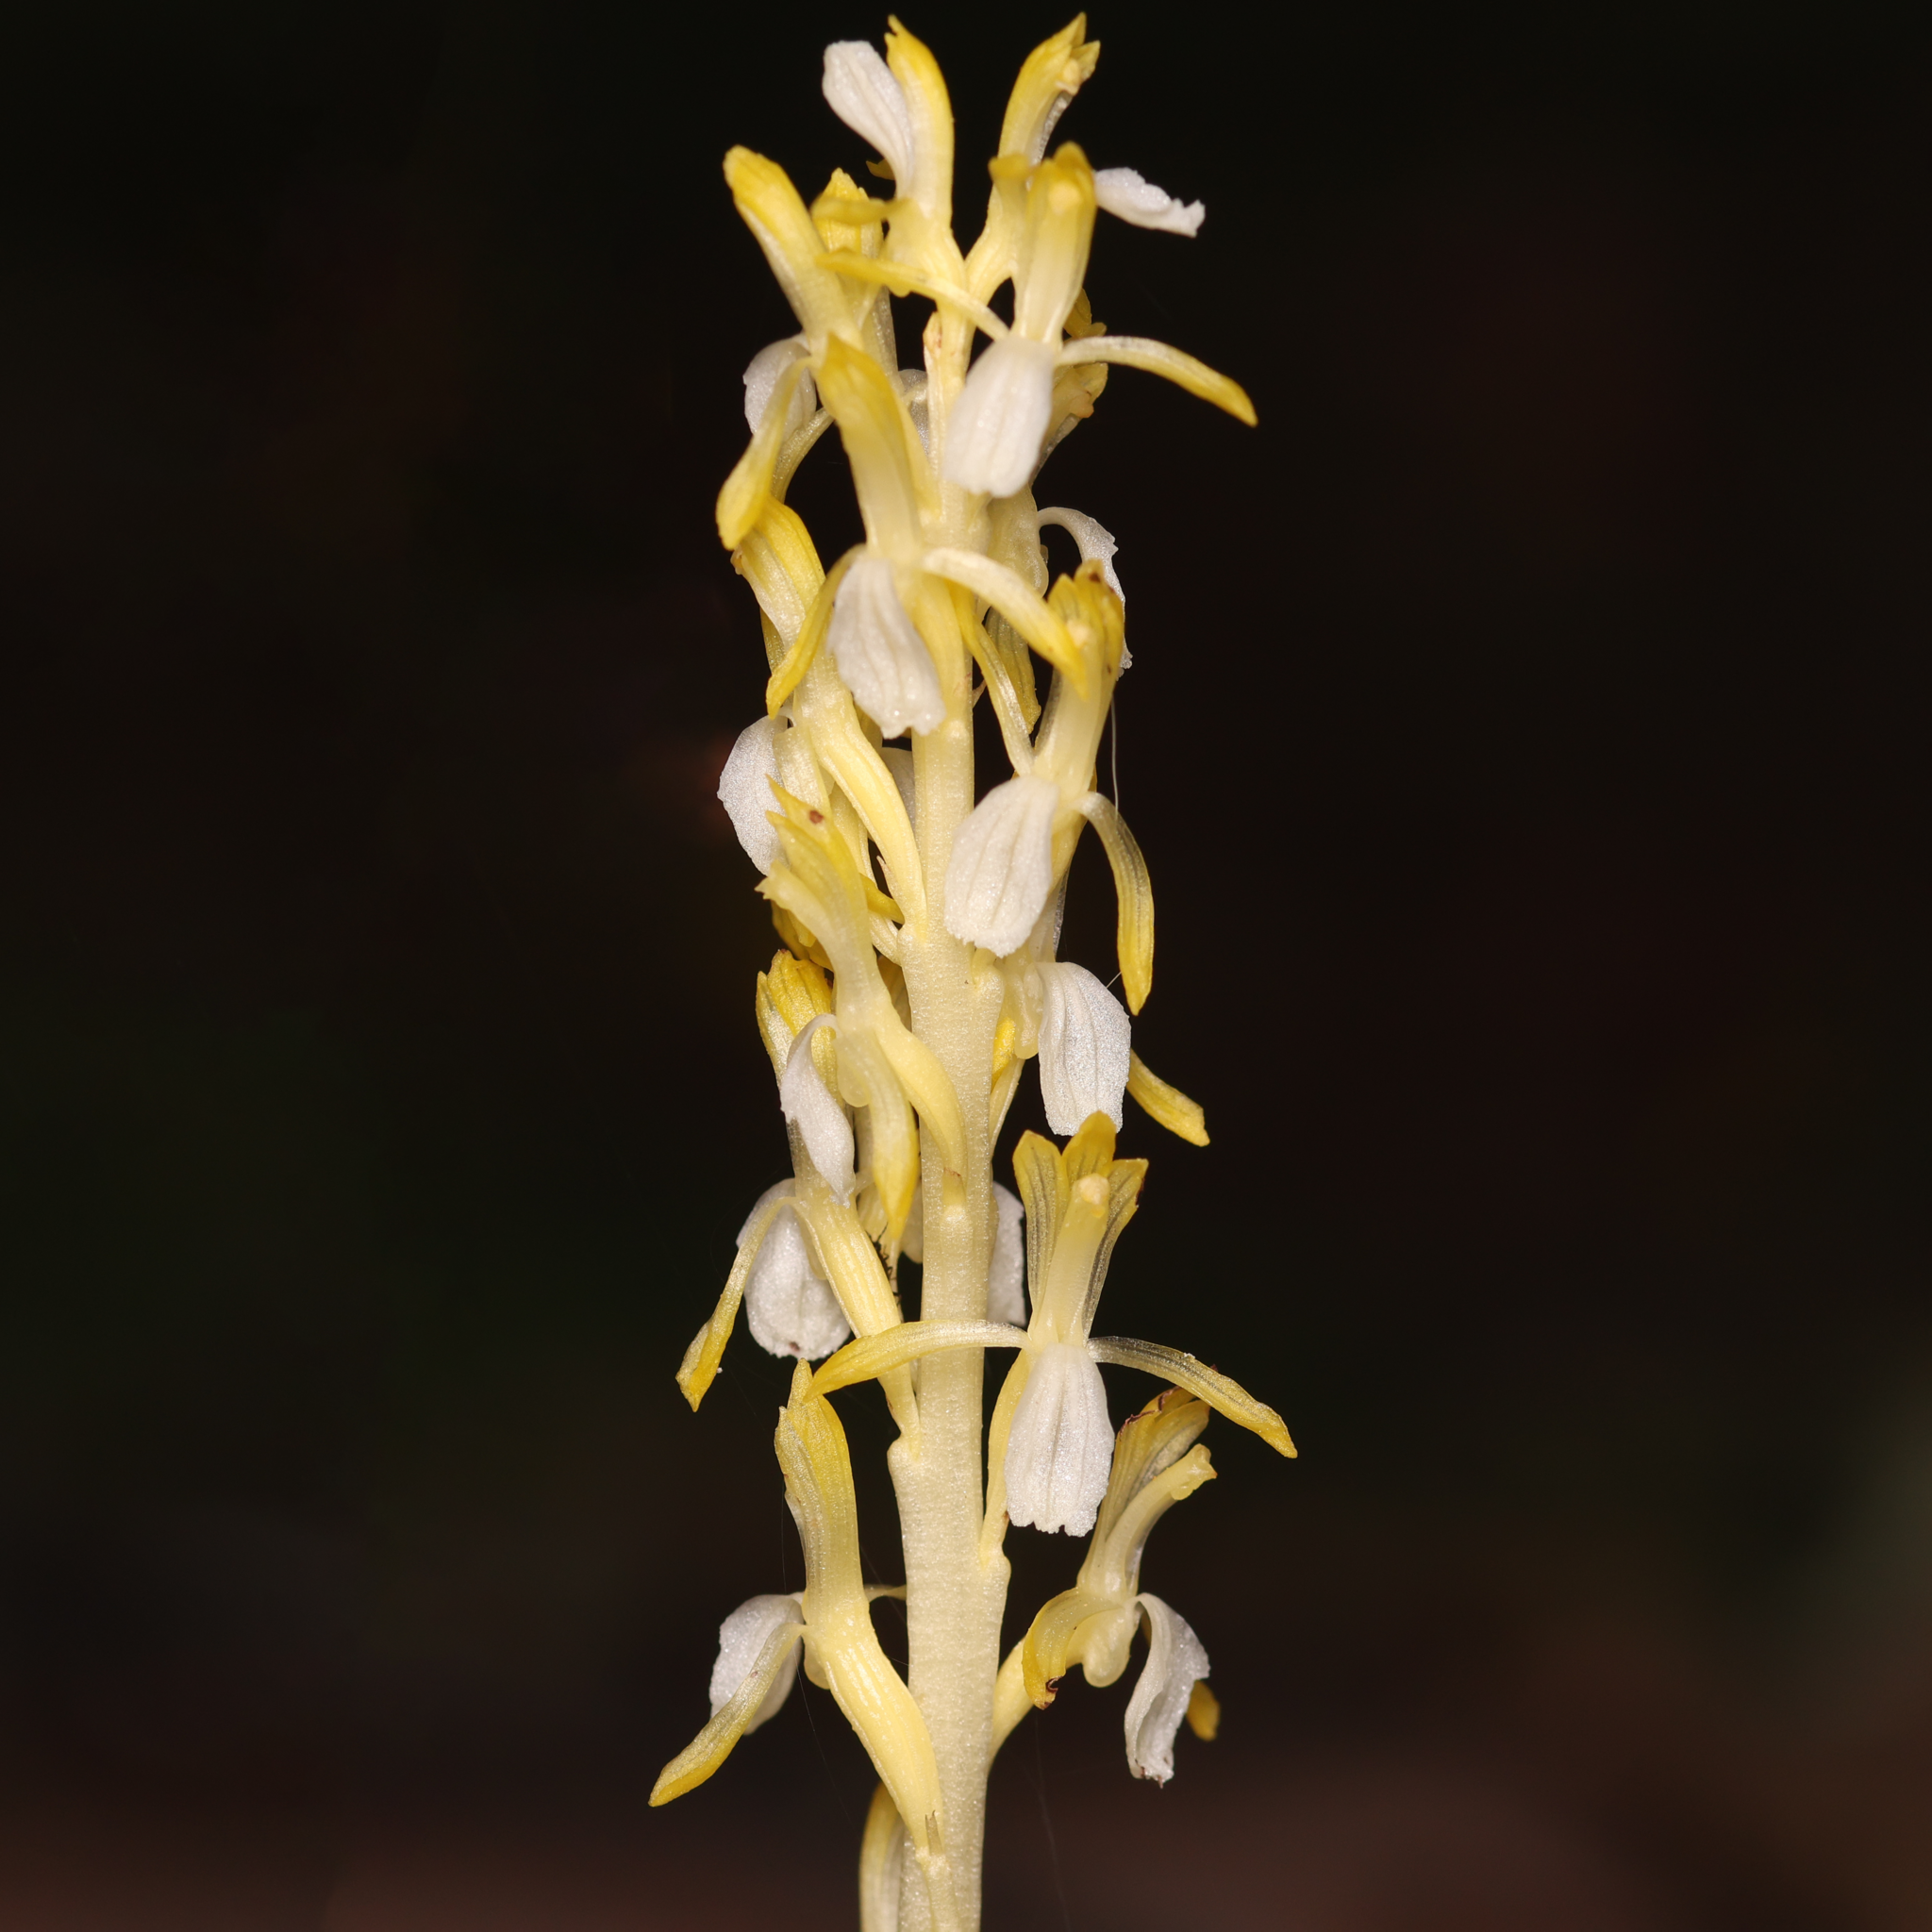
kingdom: Plantae
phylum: Tracheophyta
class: Liliopsida
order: Asparagales
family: Orchidaceae
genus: Corallorhiza
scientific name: Corallorhiza mertensiana
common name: Pacific coralroot
